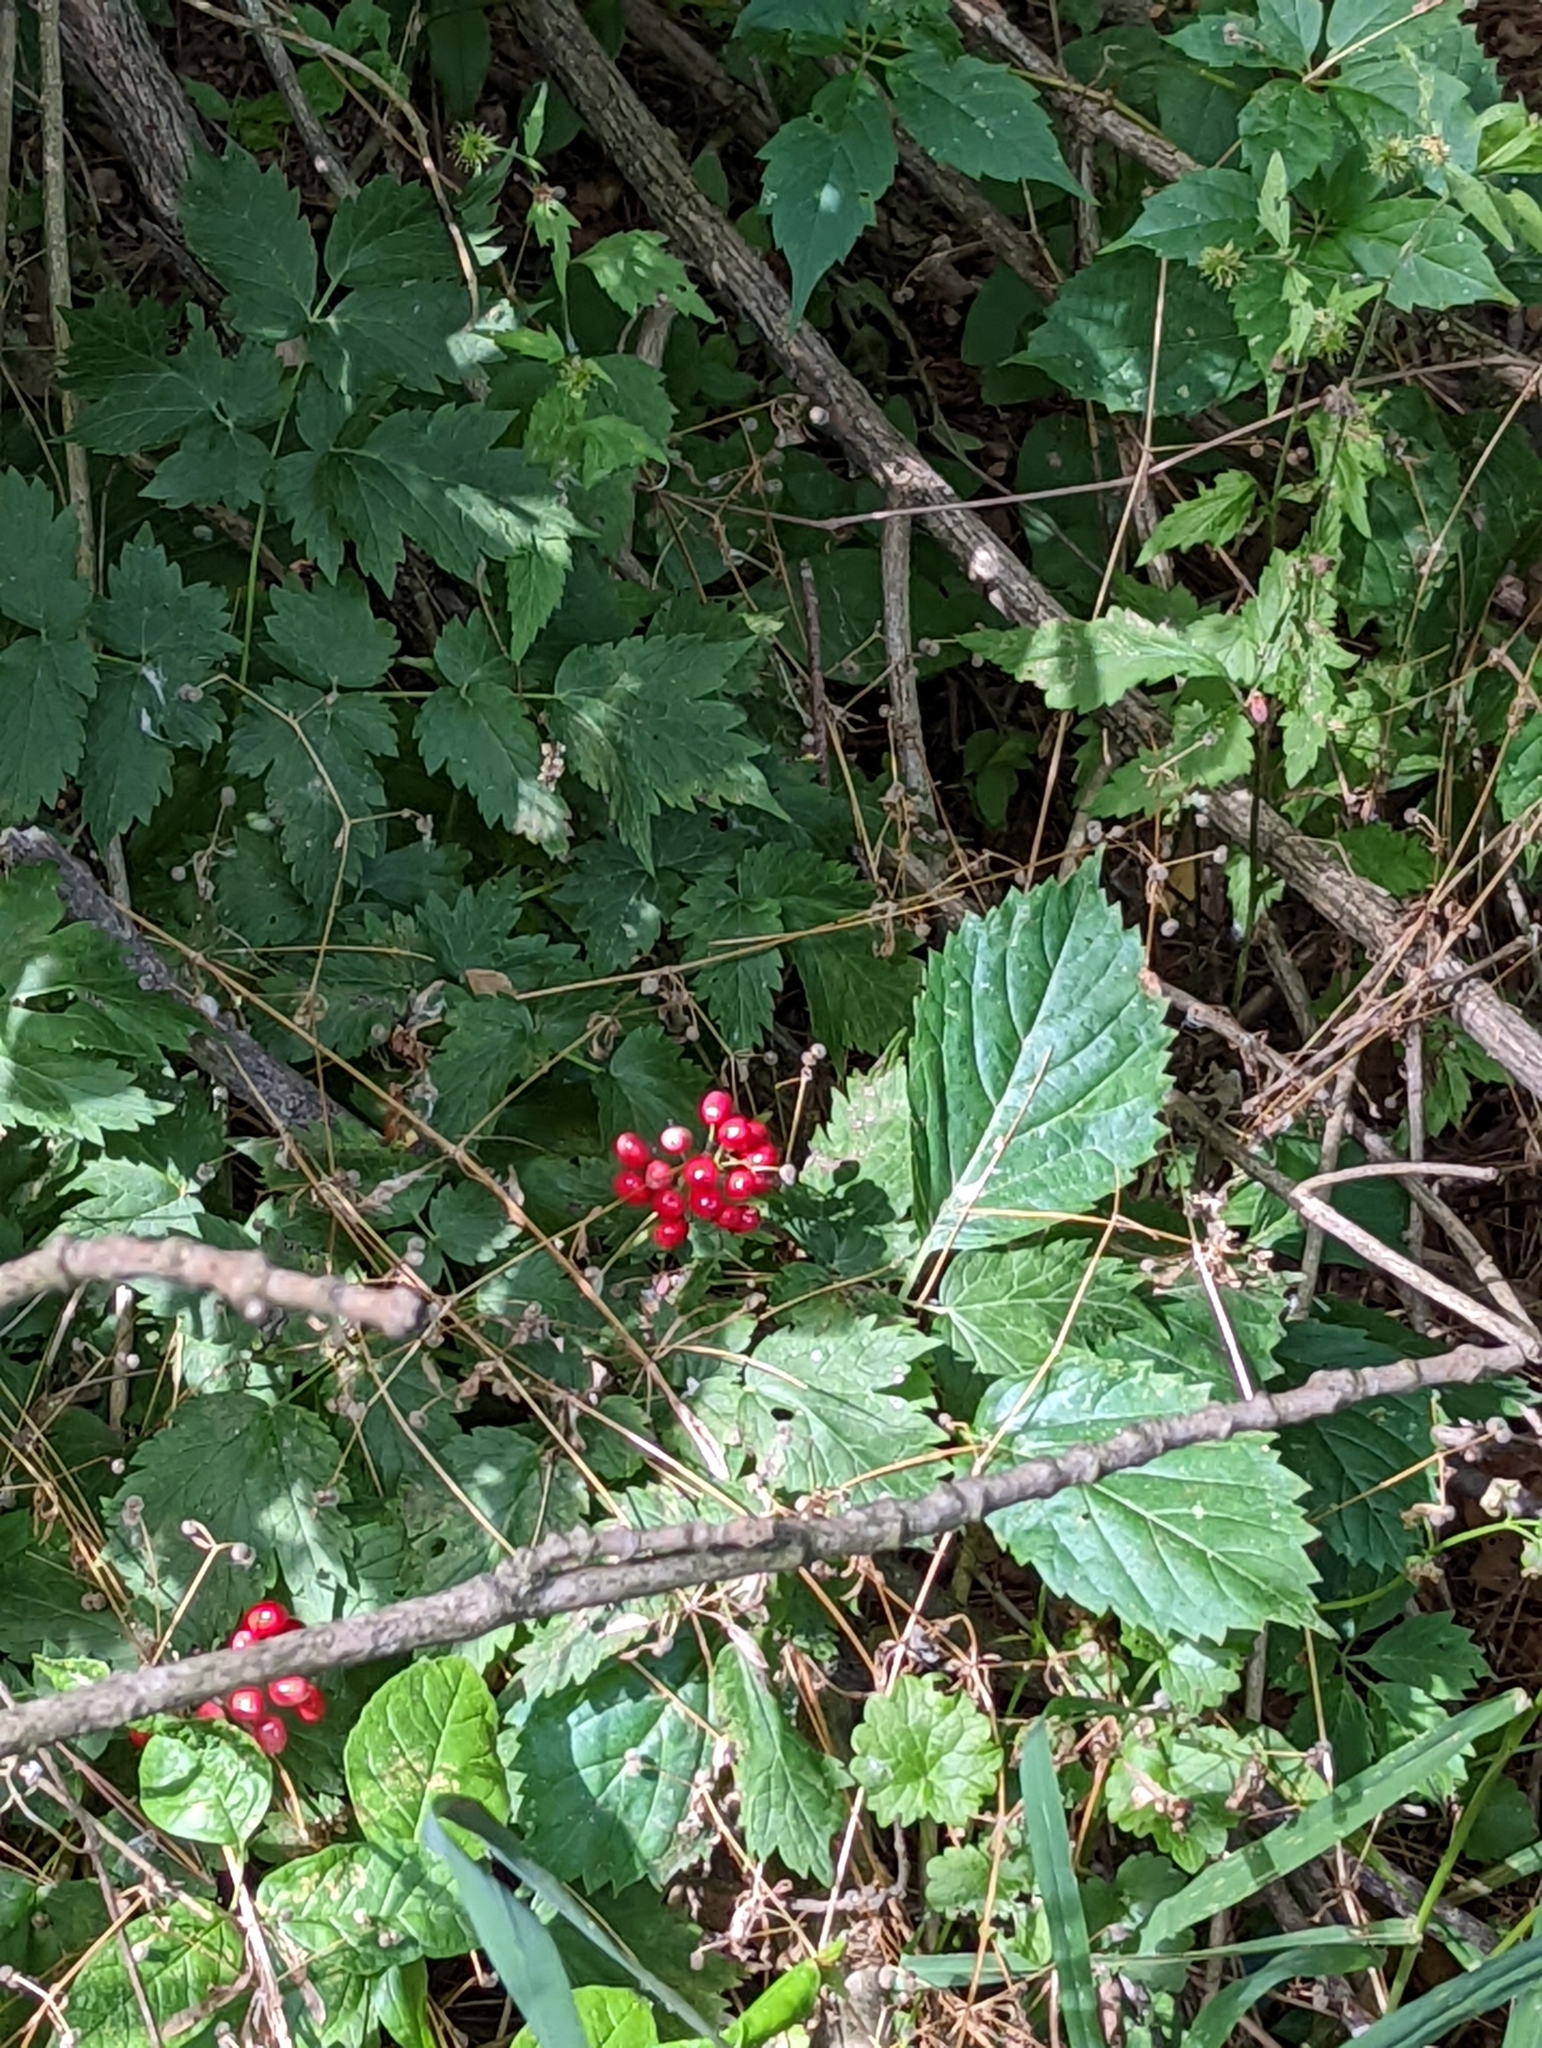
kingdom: Plantae
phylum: Tracheophyta
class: Magnoliopsida
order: Ranunculales
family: Ranunculaceae
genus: Actaea
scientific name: Actaea rubra
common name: Red baneberry
